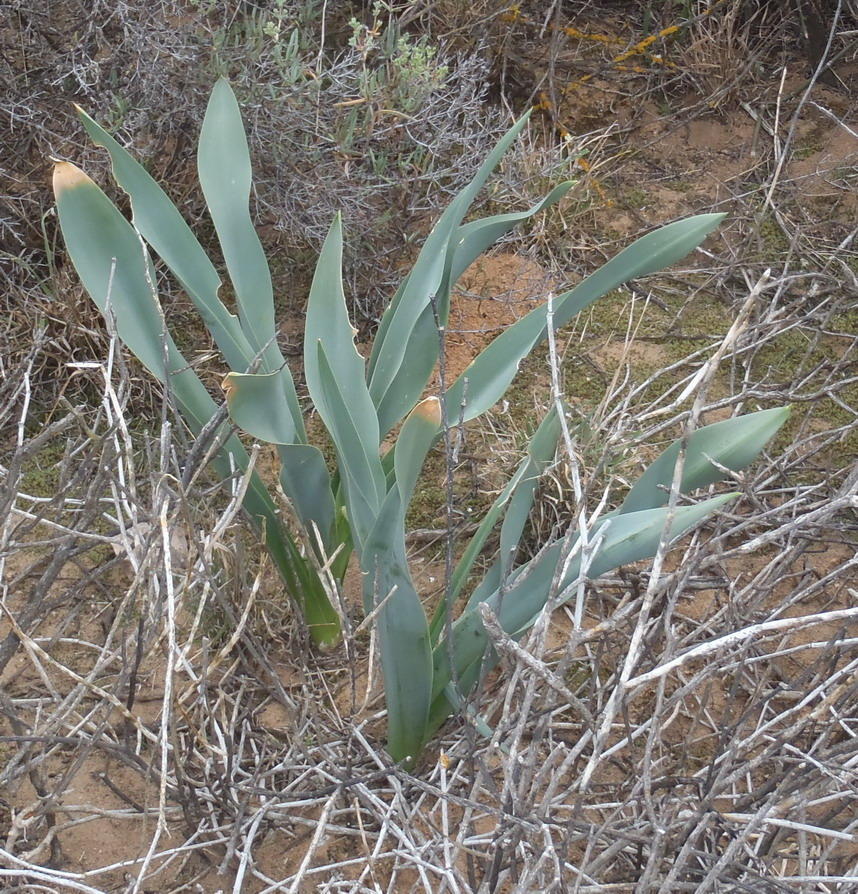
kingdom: Plantae
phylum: Tracheophyta
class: Liliopsida
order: Asparagales
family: Asparagaceae
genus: Drimia
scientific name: Drimia capensis
